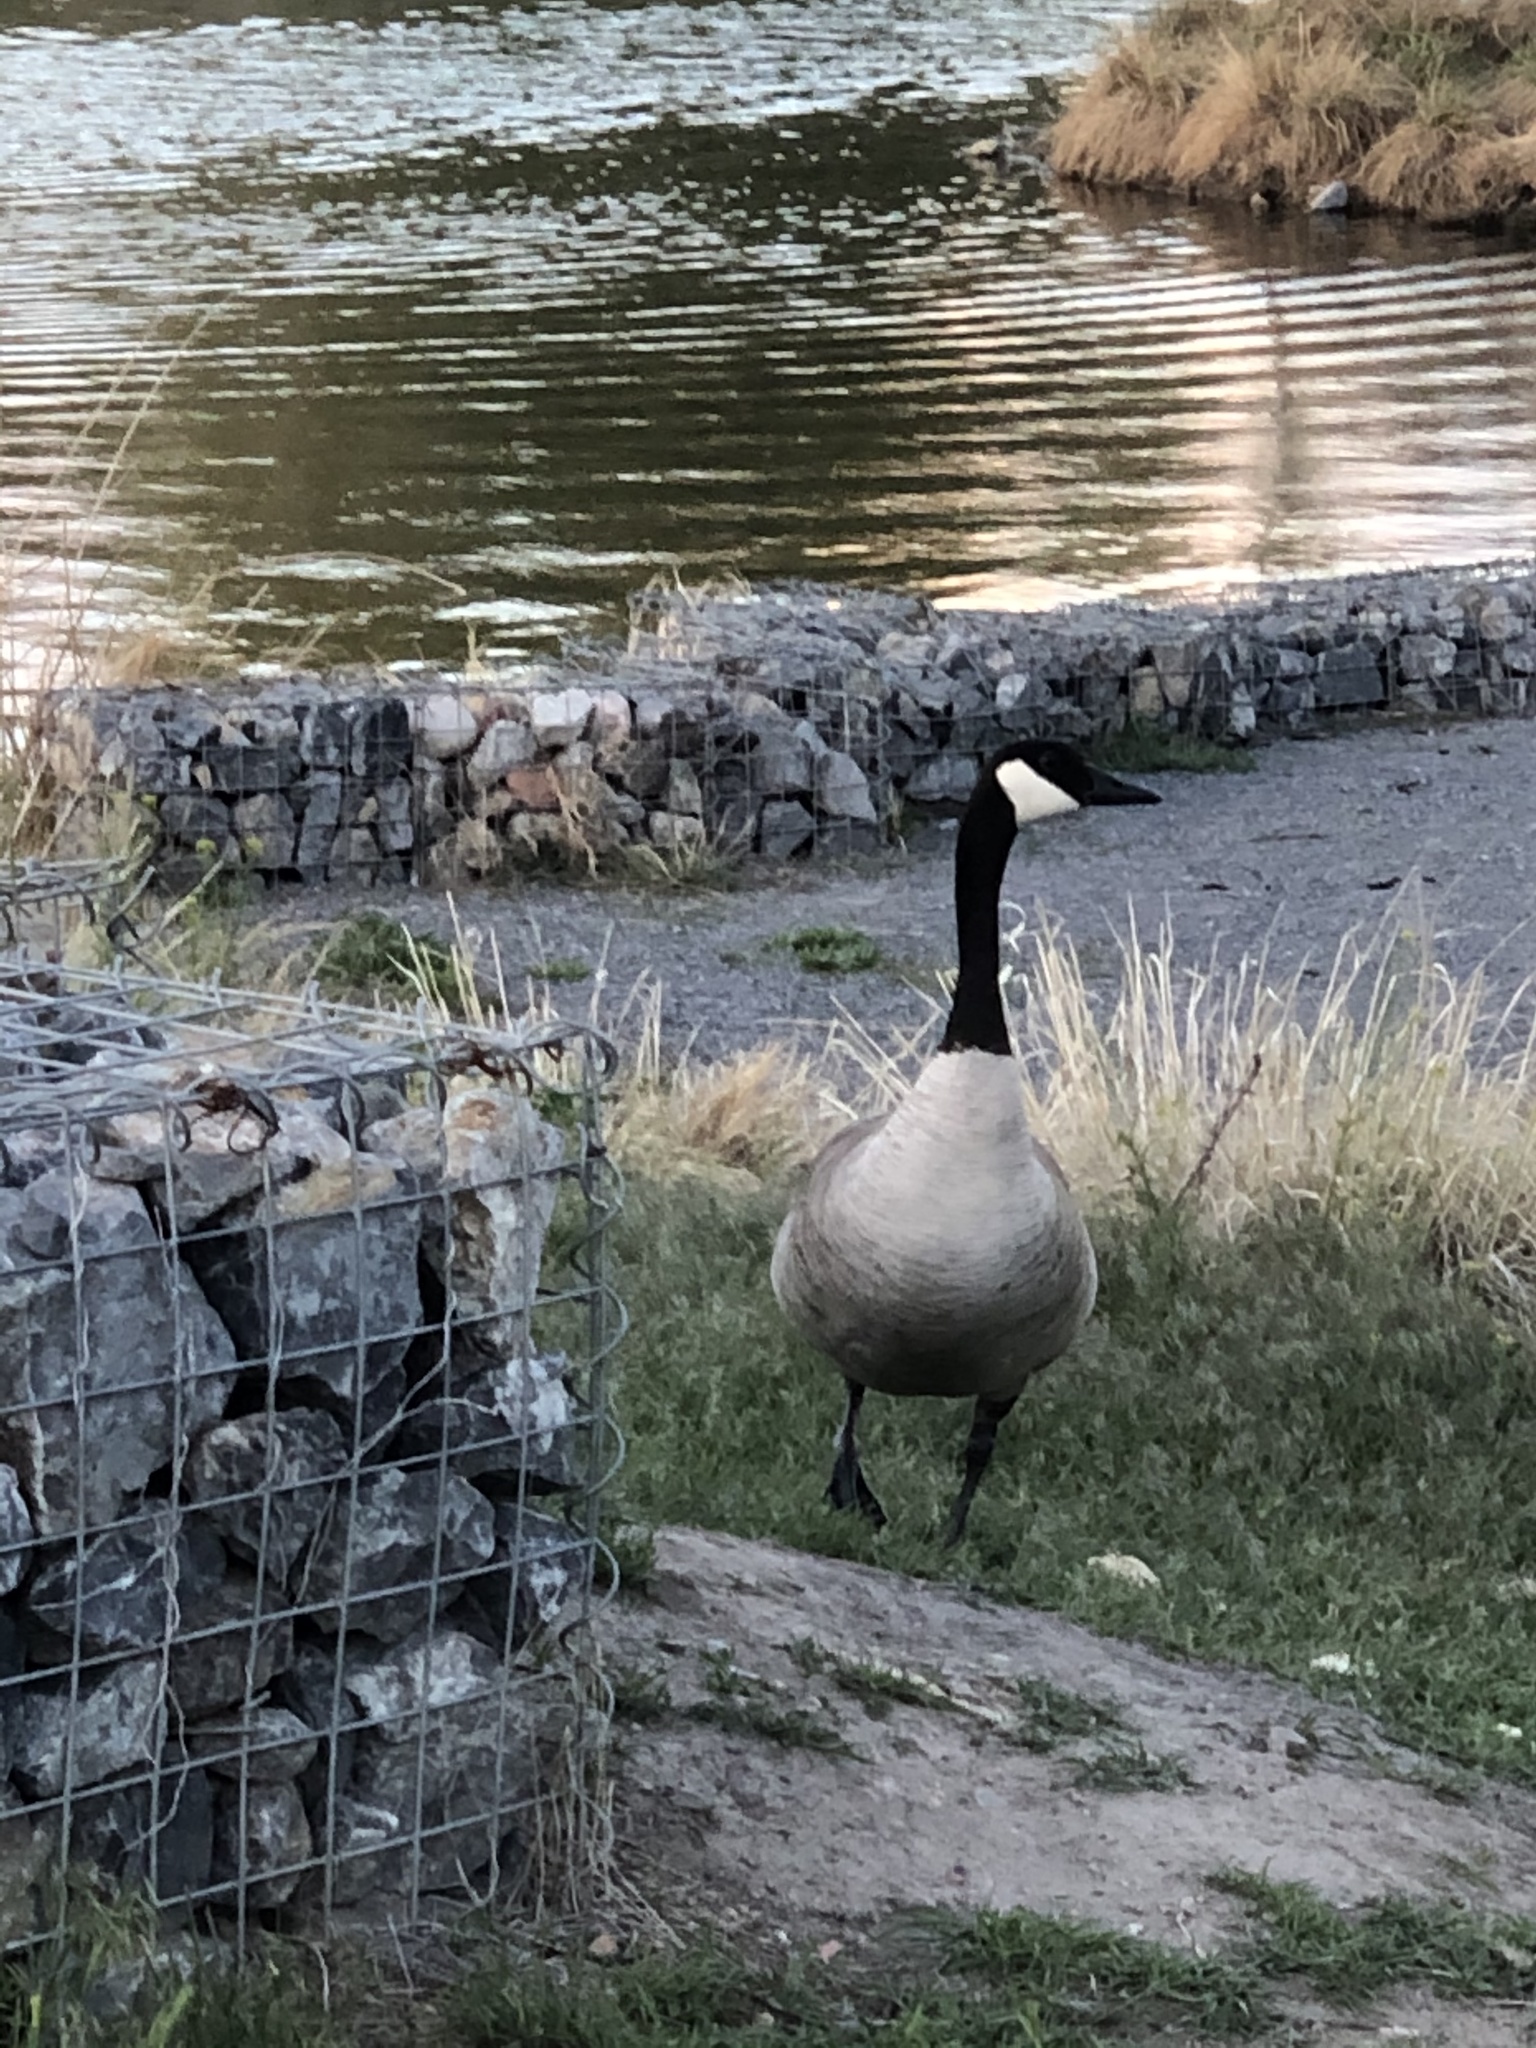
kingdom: Animalia
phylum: Chordata
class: Aves
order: Anseriformes
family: Anatidae
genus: Branta
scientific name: Branta canadensis
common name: Canada goose
